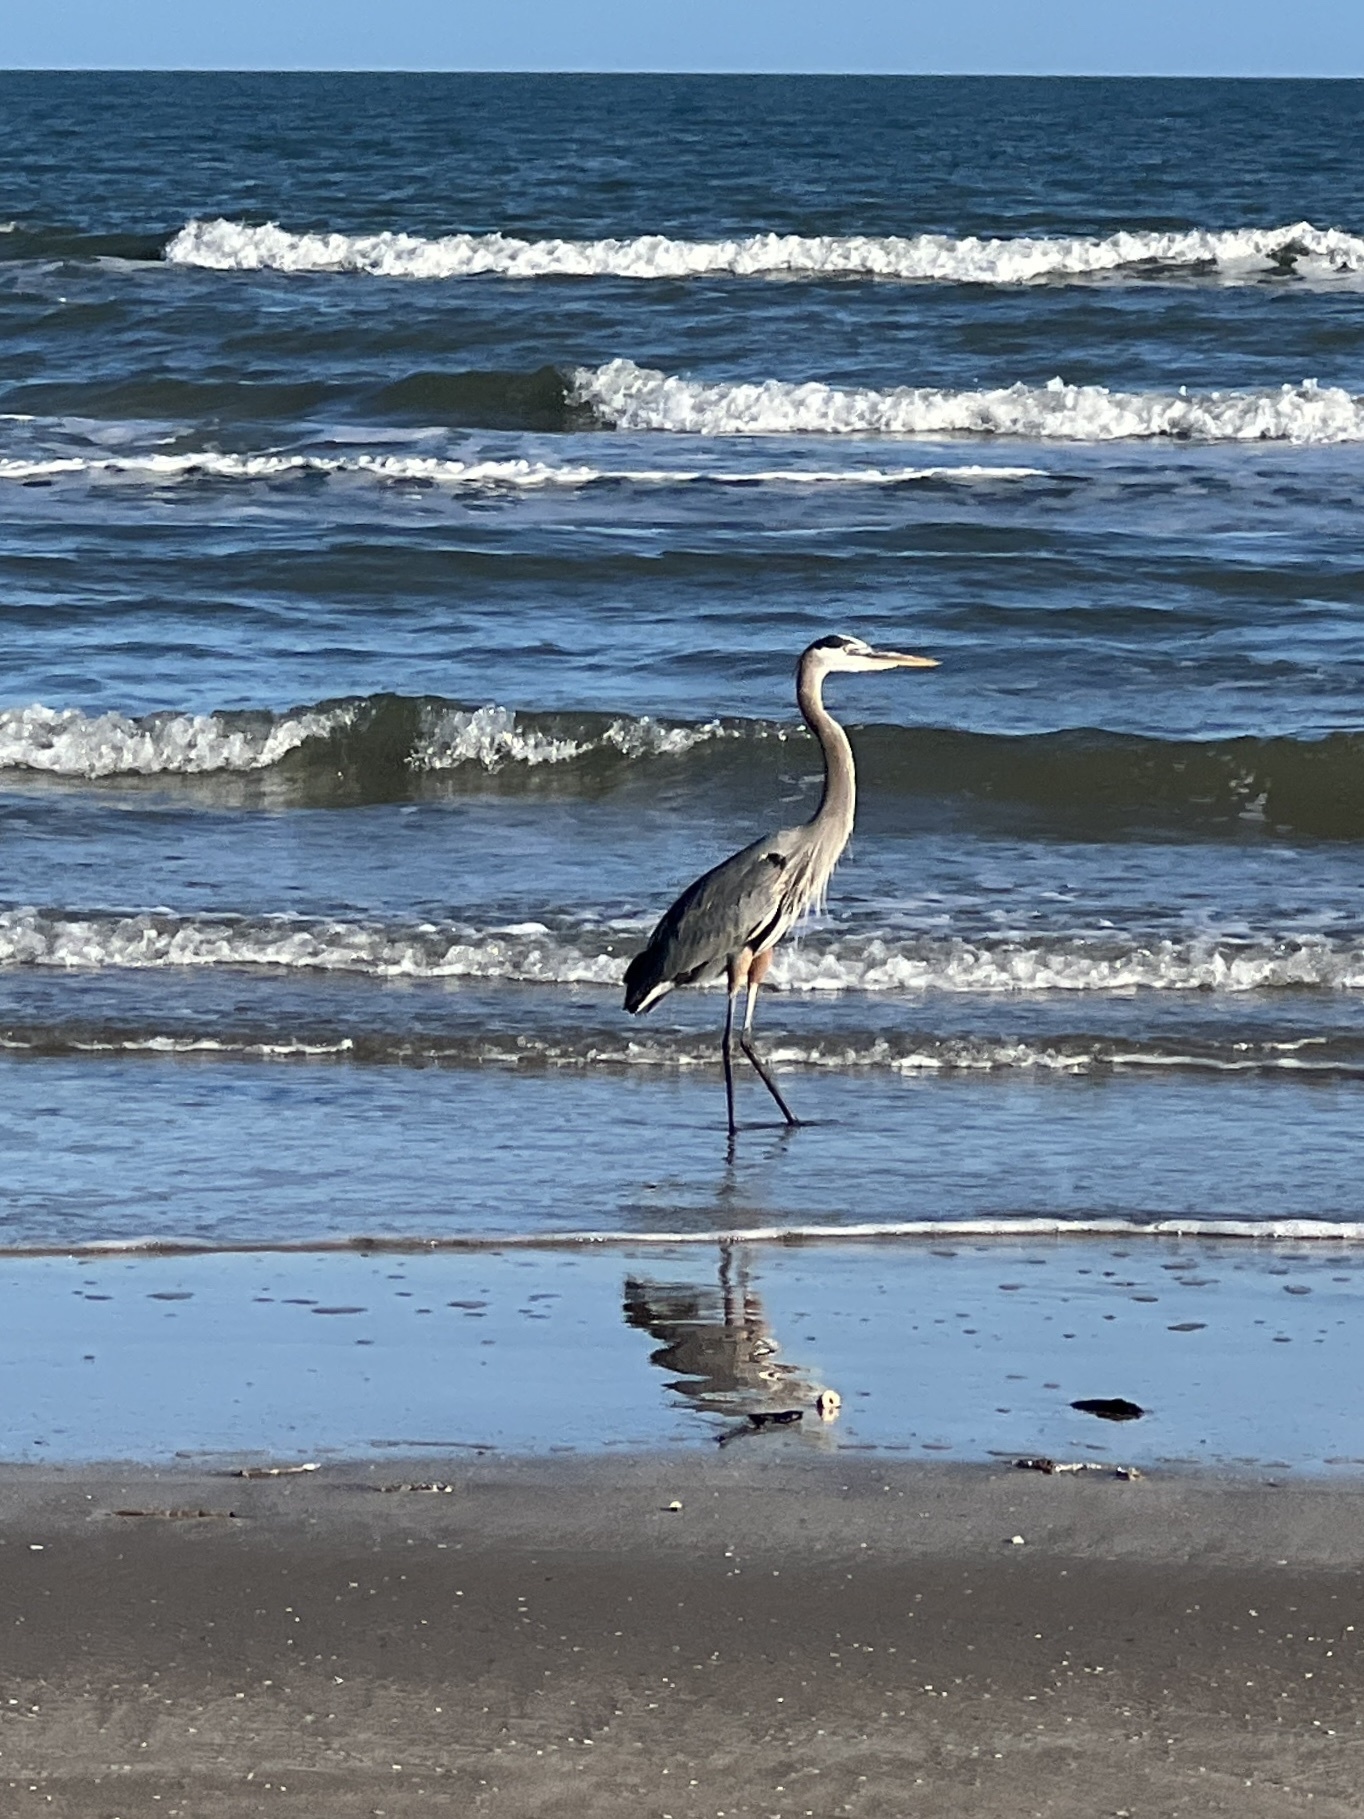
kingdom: Animalia
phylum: Chordata
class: Aves
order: Pelecaniformes
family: Ardeidae
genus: Ardea
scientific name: Ardea herodias
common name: Great blue heron
